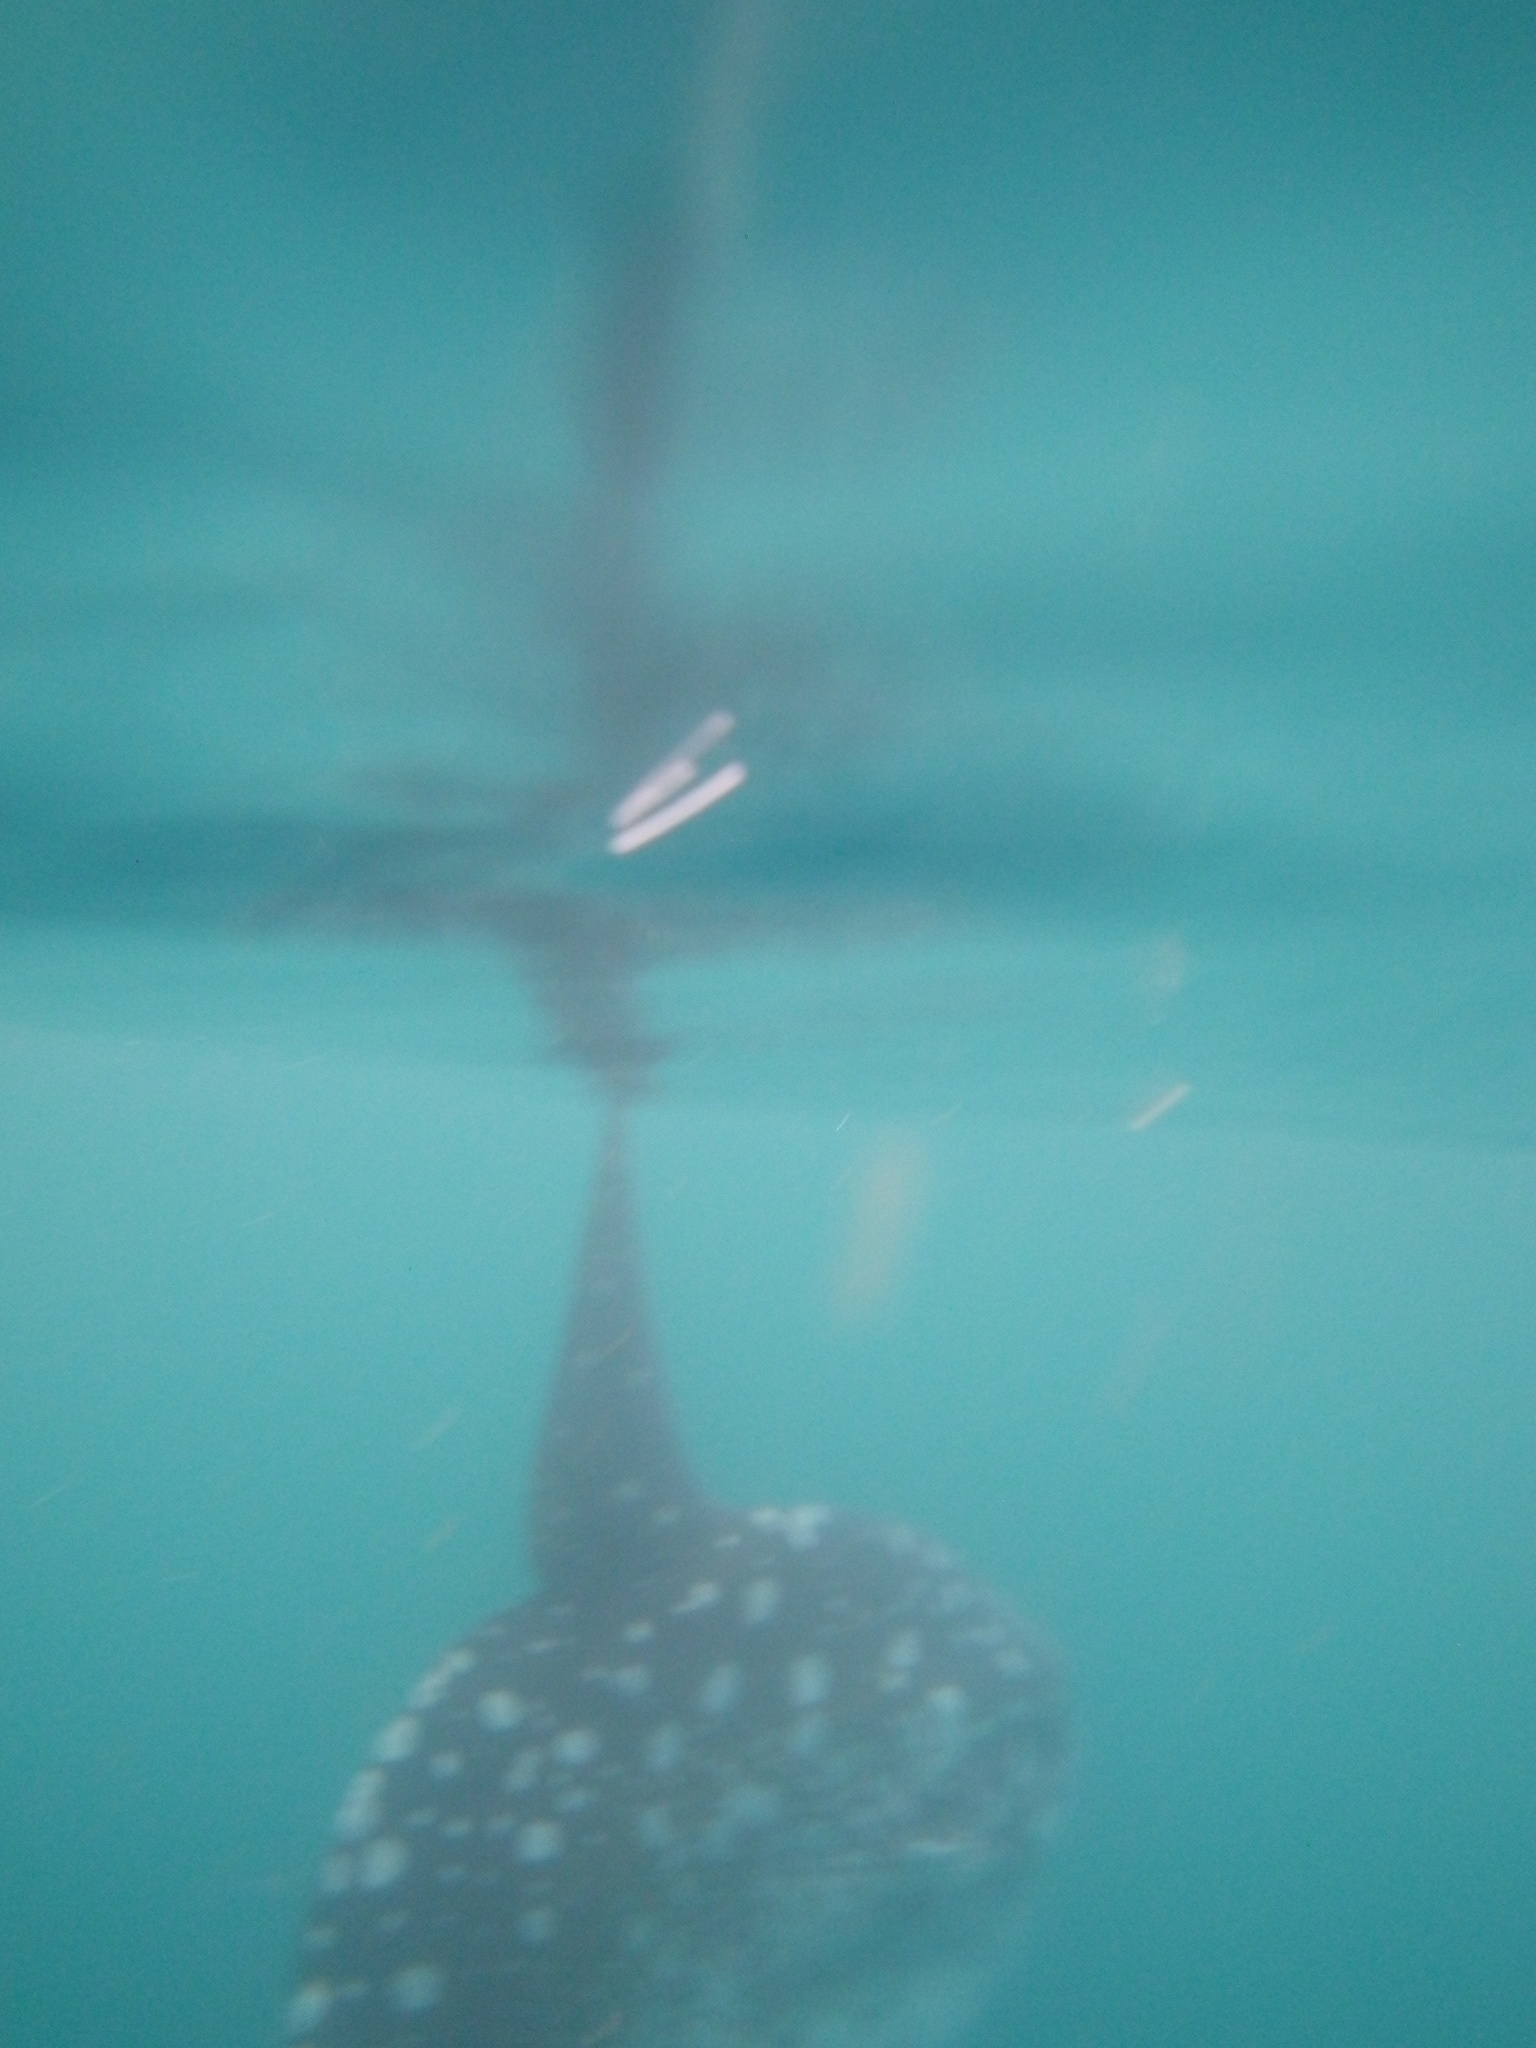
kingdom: Animalia
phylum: Chordata
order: Tetraodontiformes
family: Molidae
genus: Mola
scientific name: Mola mola
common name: Ocean sunfish
